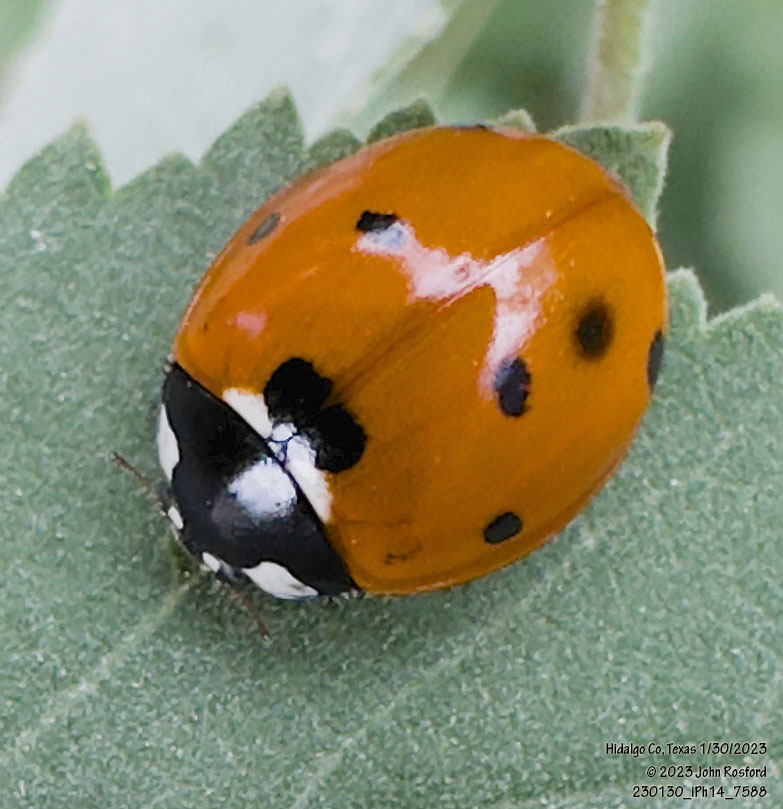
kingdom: Animalia
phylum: Arthropoda
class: Insecta
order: Coleoptera
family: Coccinellidae
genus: Coccinella
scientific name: Coccinella septempunctata
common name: Sevenspotted lady beetle
